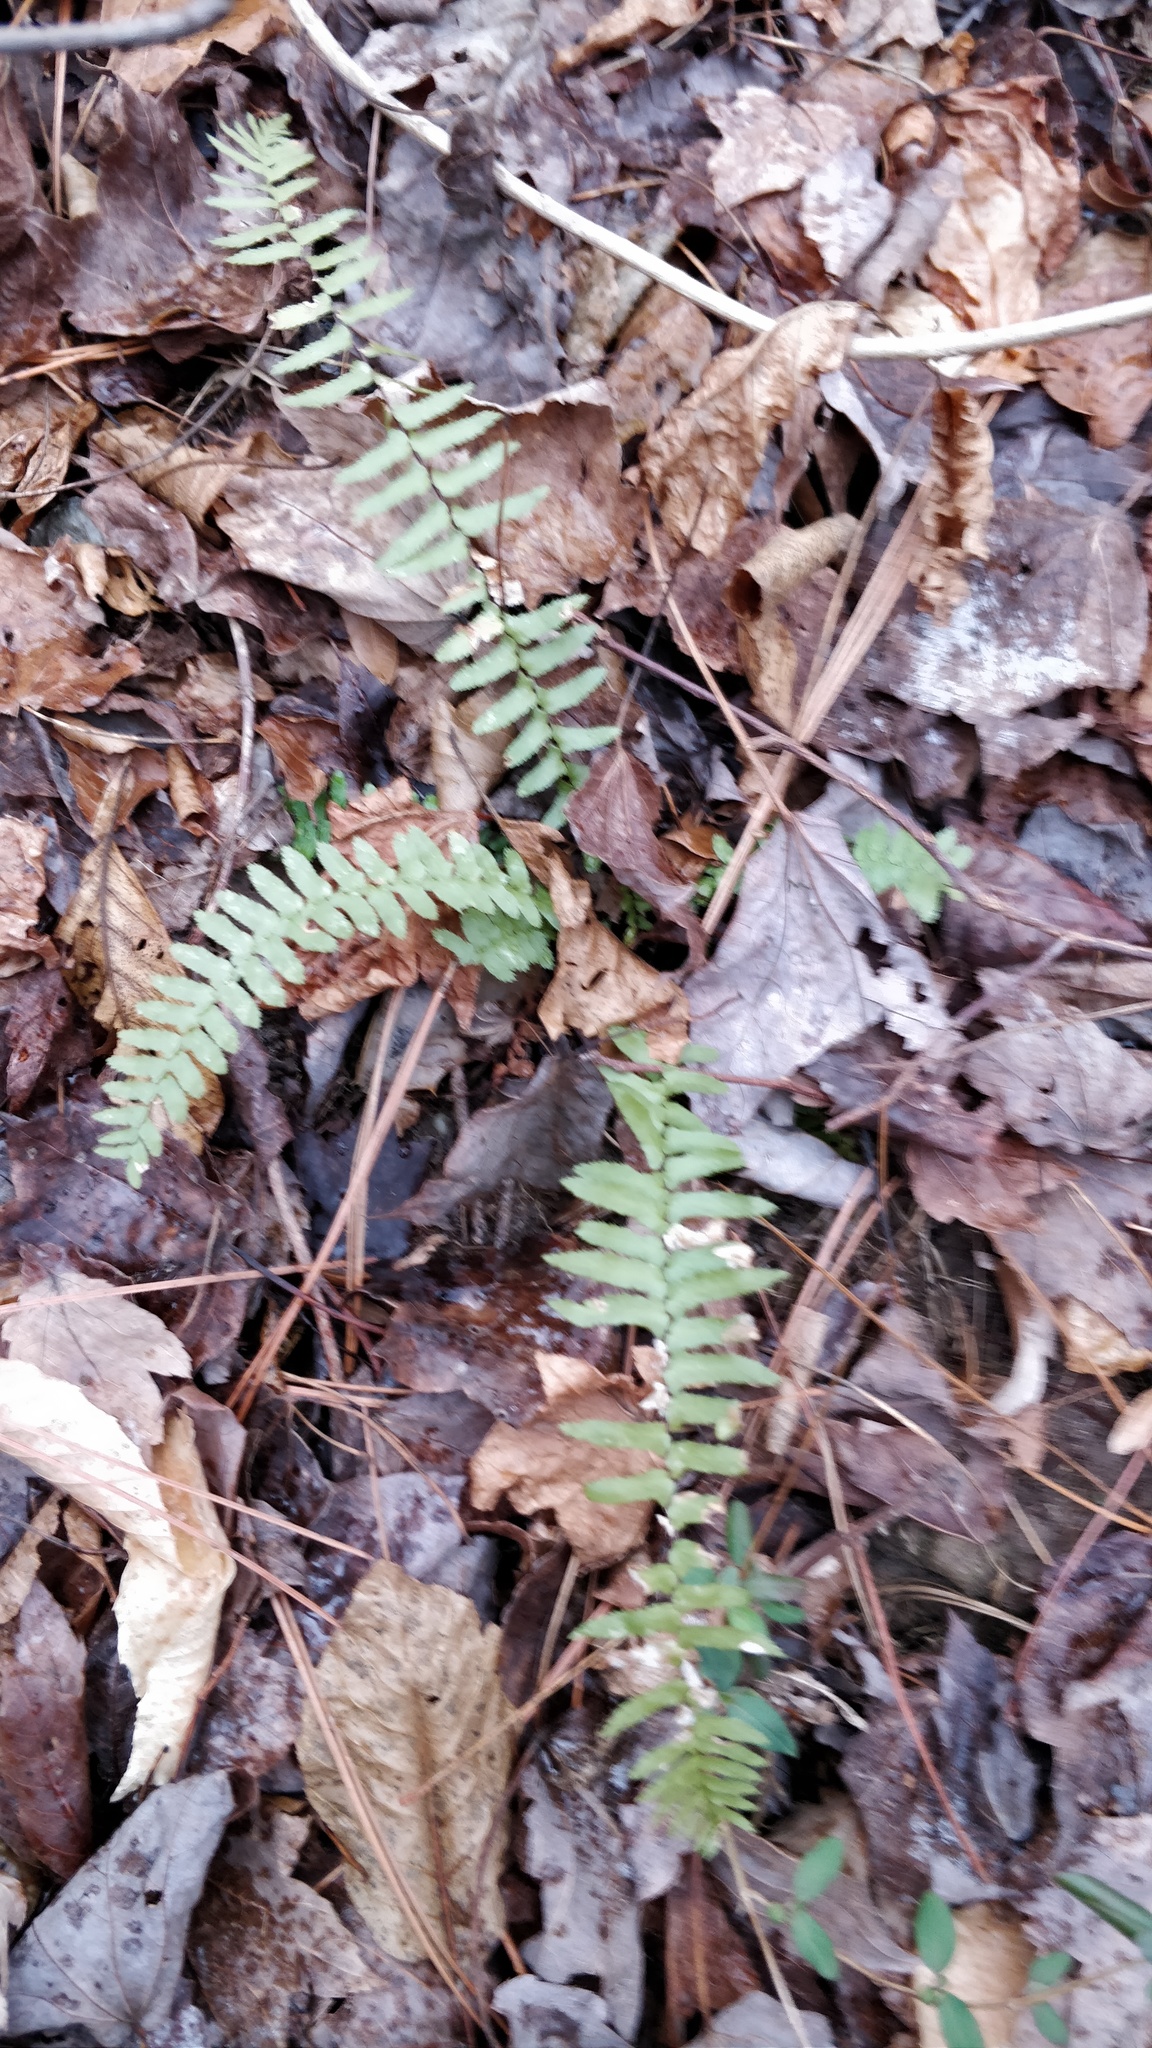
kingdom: Plantae
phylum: Tracheophyta
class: Polypodiopsida
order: Polypodiales
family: Aspleniaceae
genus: Asplenium
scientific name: Asplenium platyneuron
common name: Ebony spleenwort
